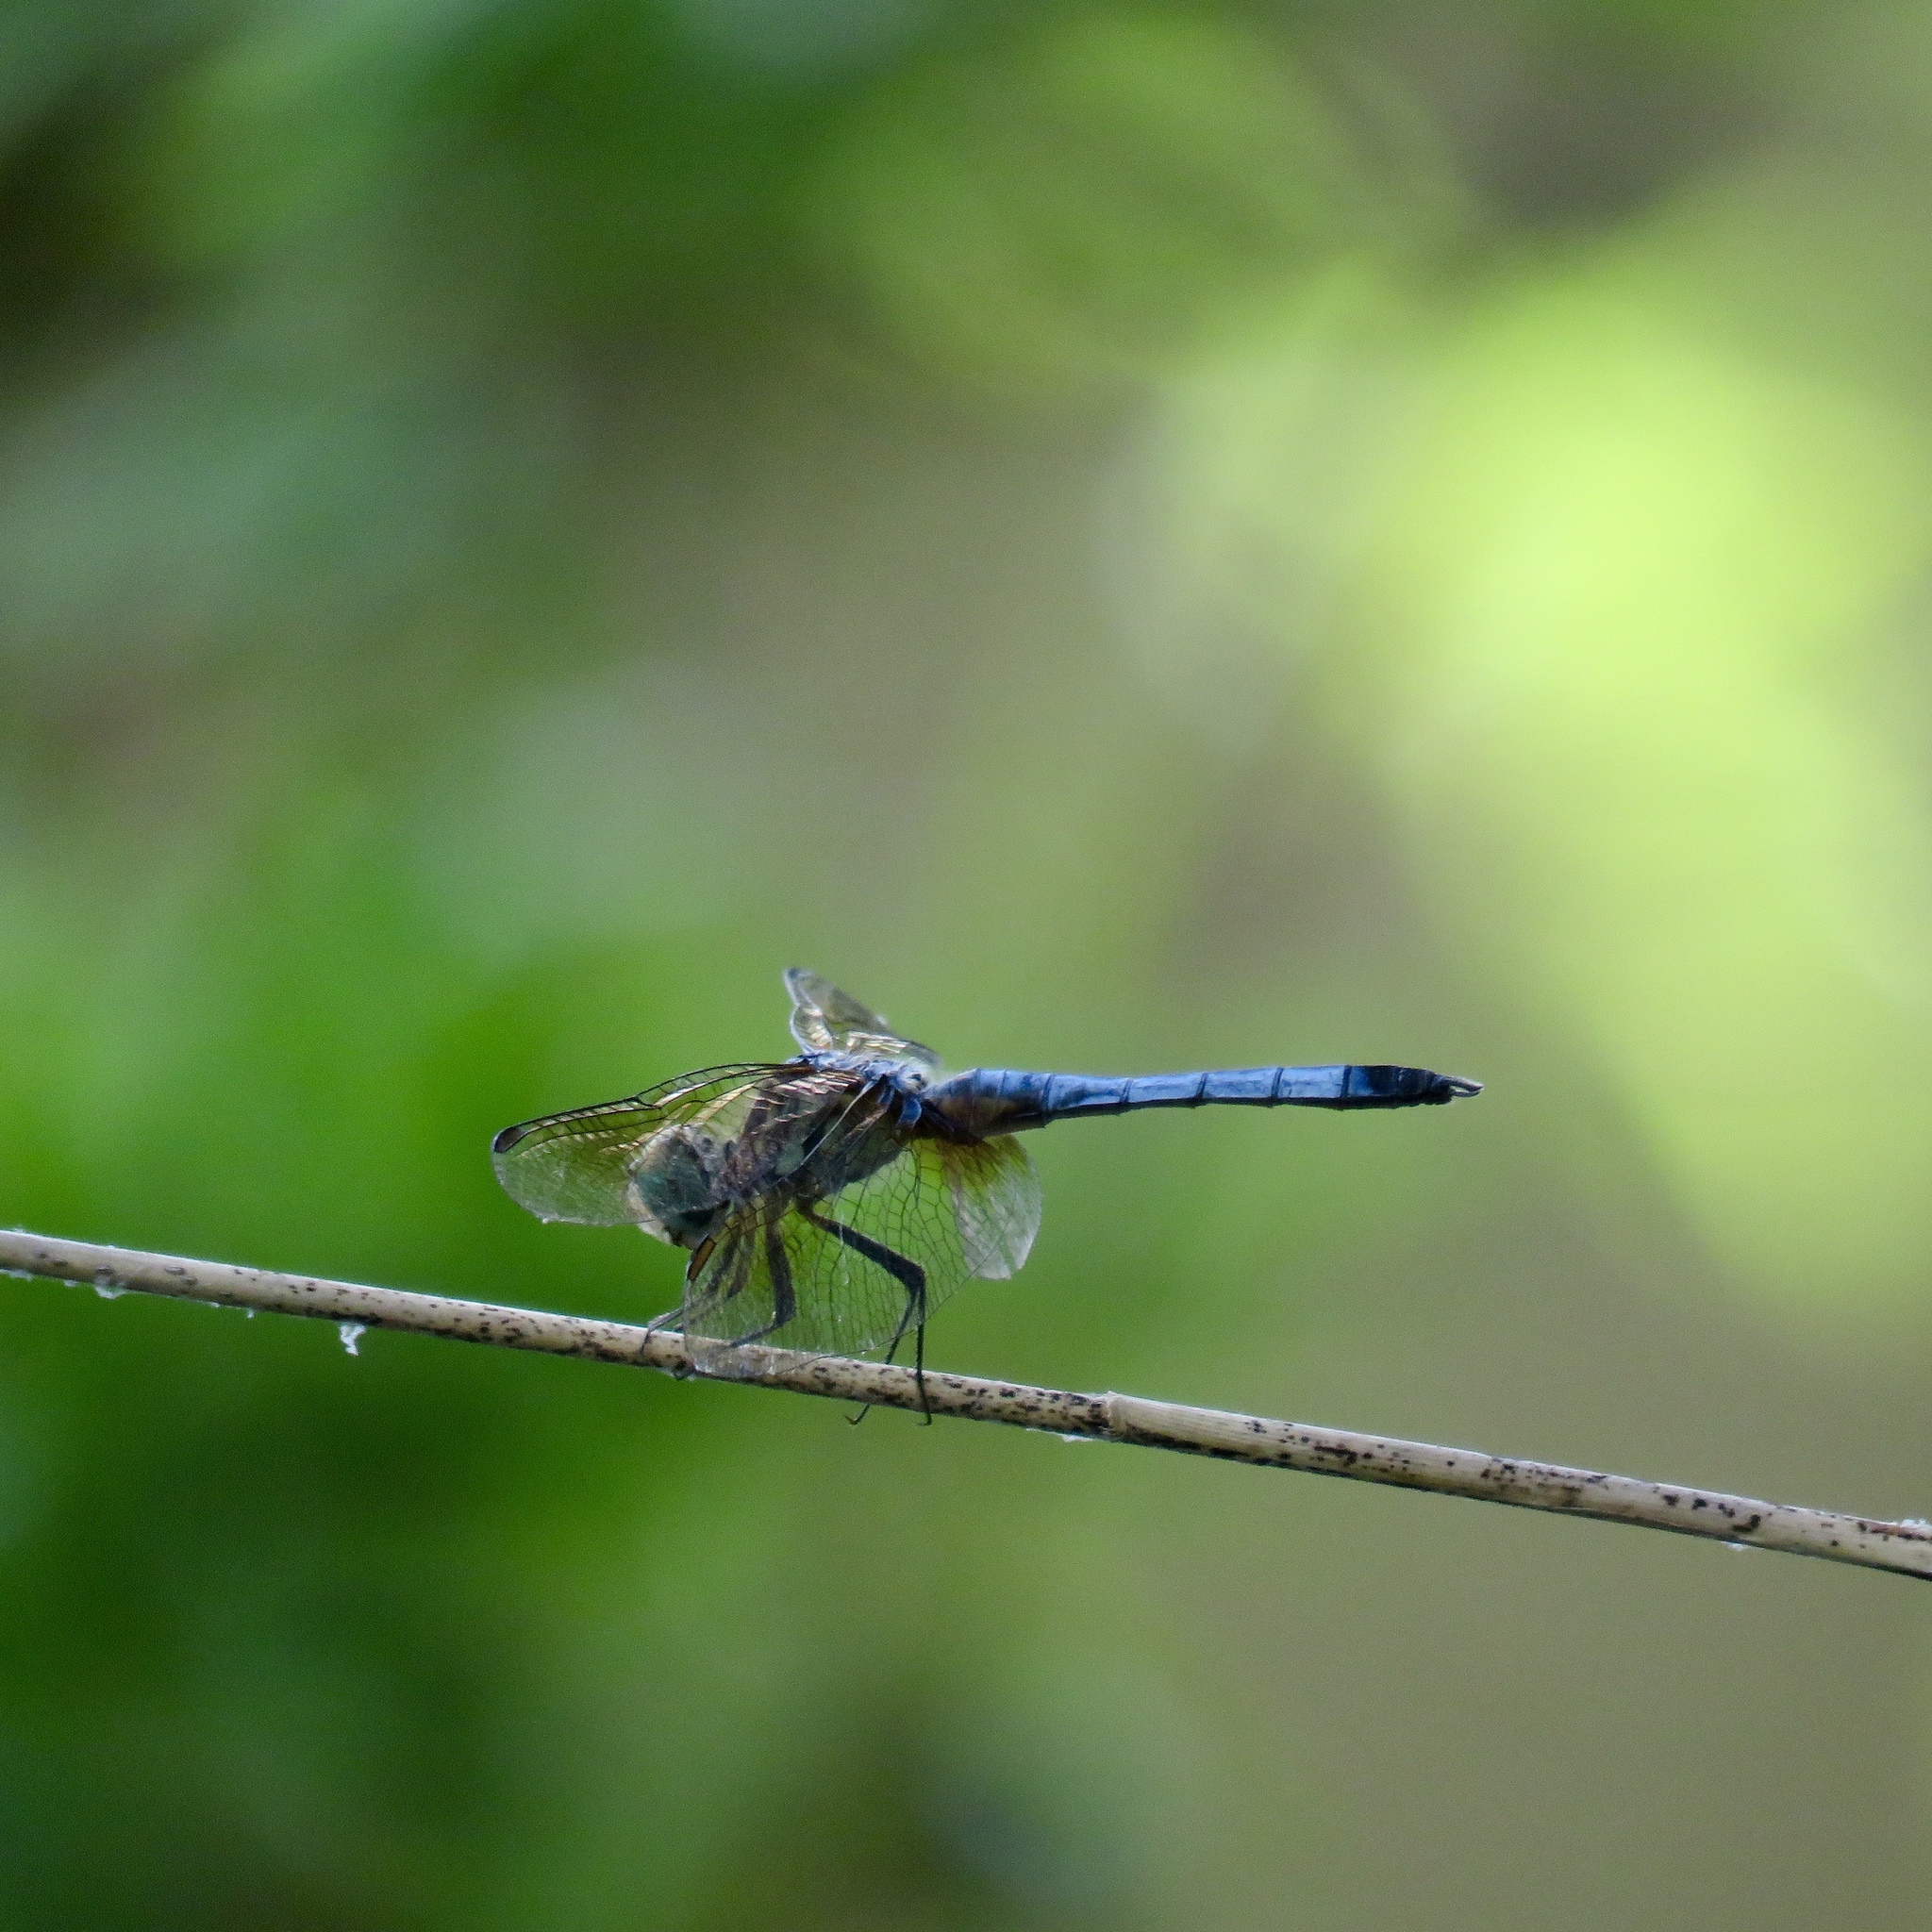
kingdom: Animalia
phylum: Arthropoda
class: Insecta
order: Odonata
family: Libellulidae
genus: Pachydiplax
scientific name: Pachydiplax longipennis
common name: Blue dasher
